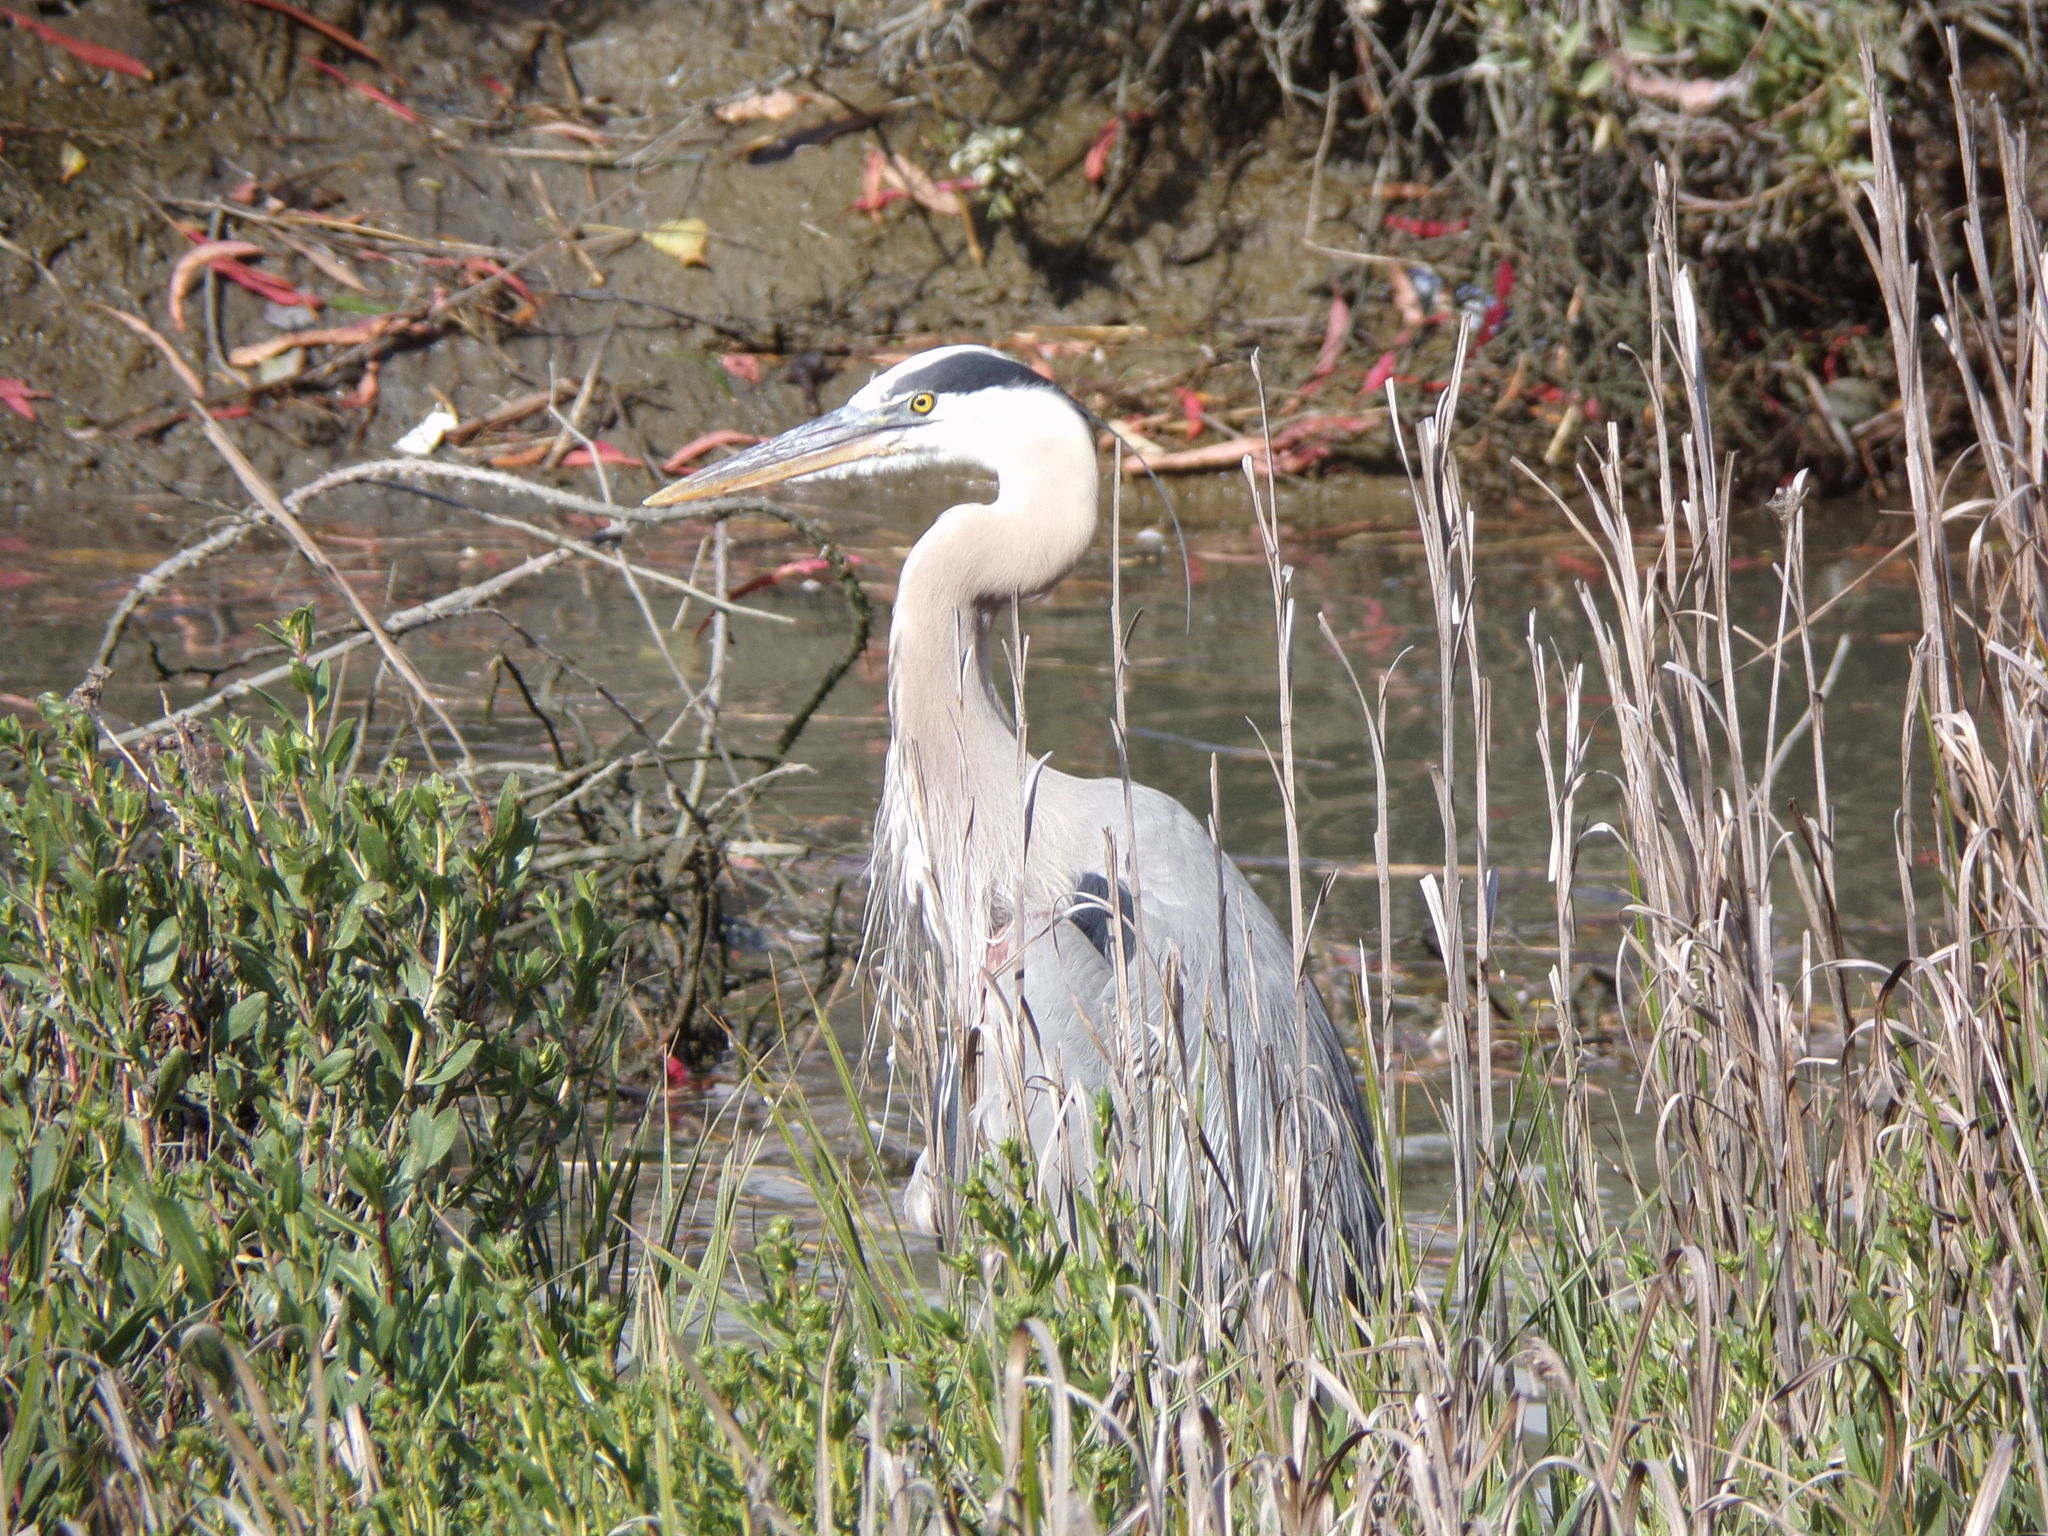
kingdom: Animalia
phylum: Chordata
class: Aves
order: Pelecaniformes
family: Ardeidae
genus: Ardea
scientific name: Ardea herodias
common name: Great blue heron
